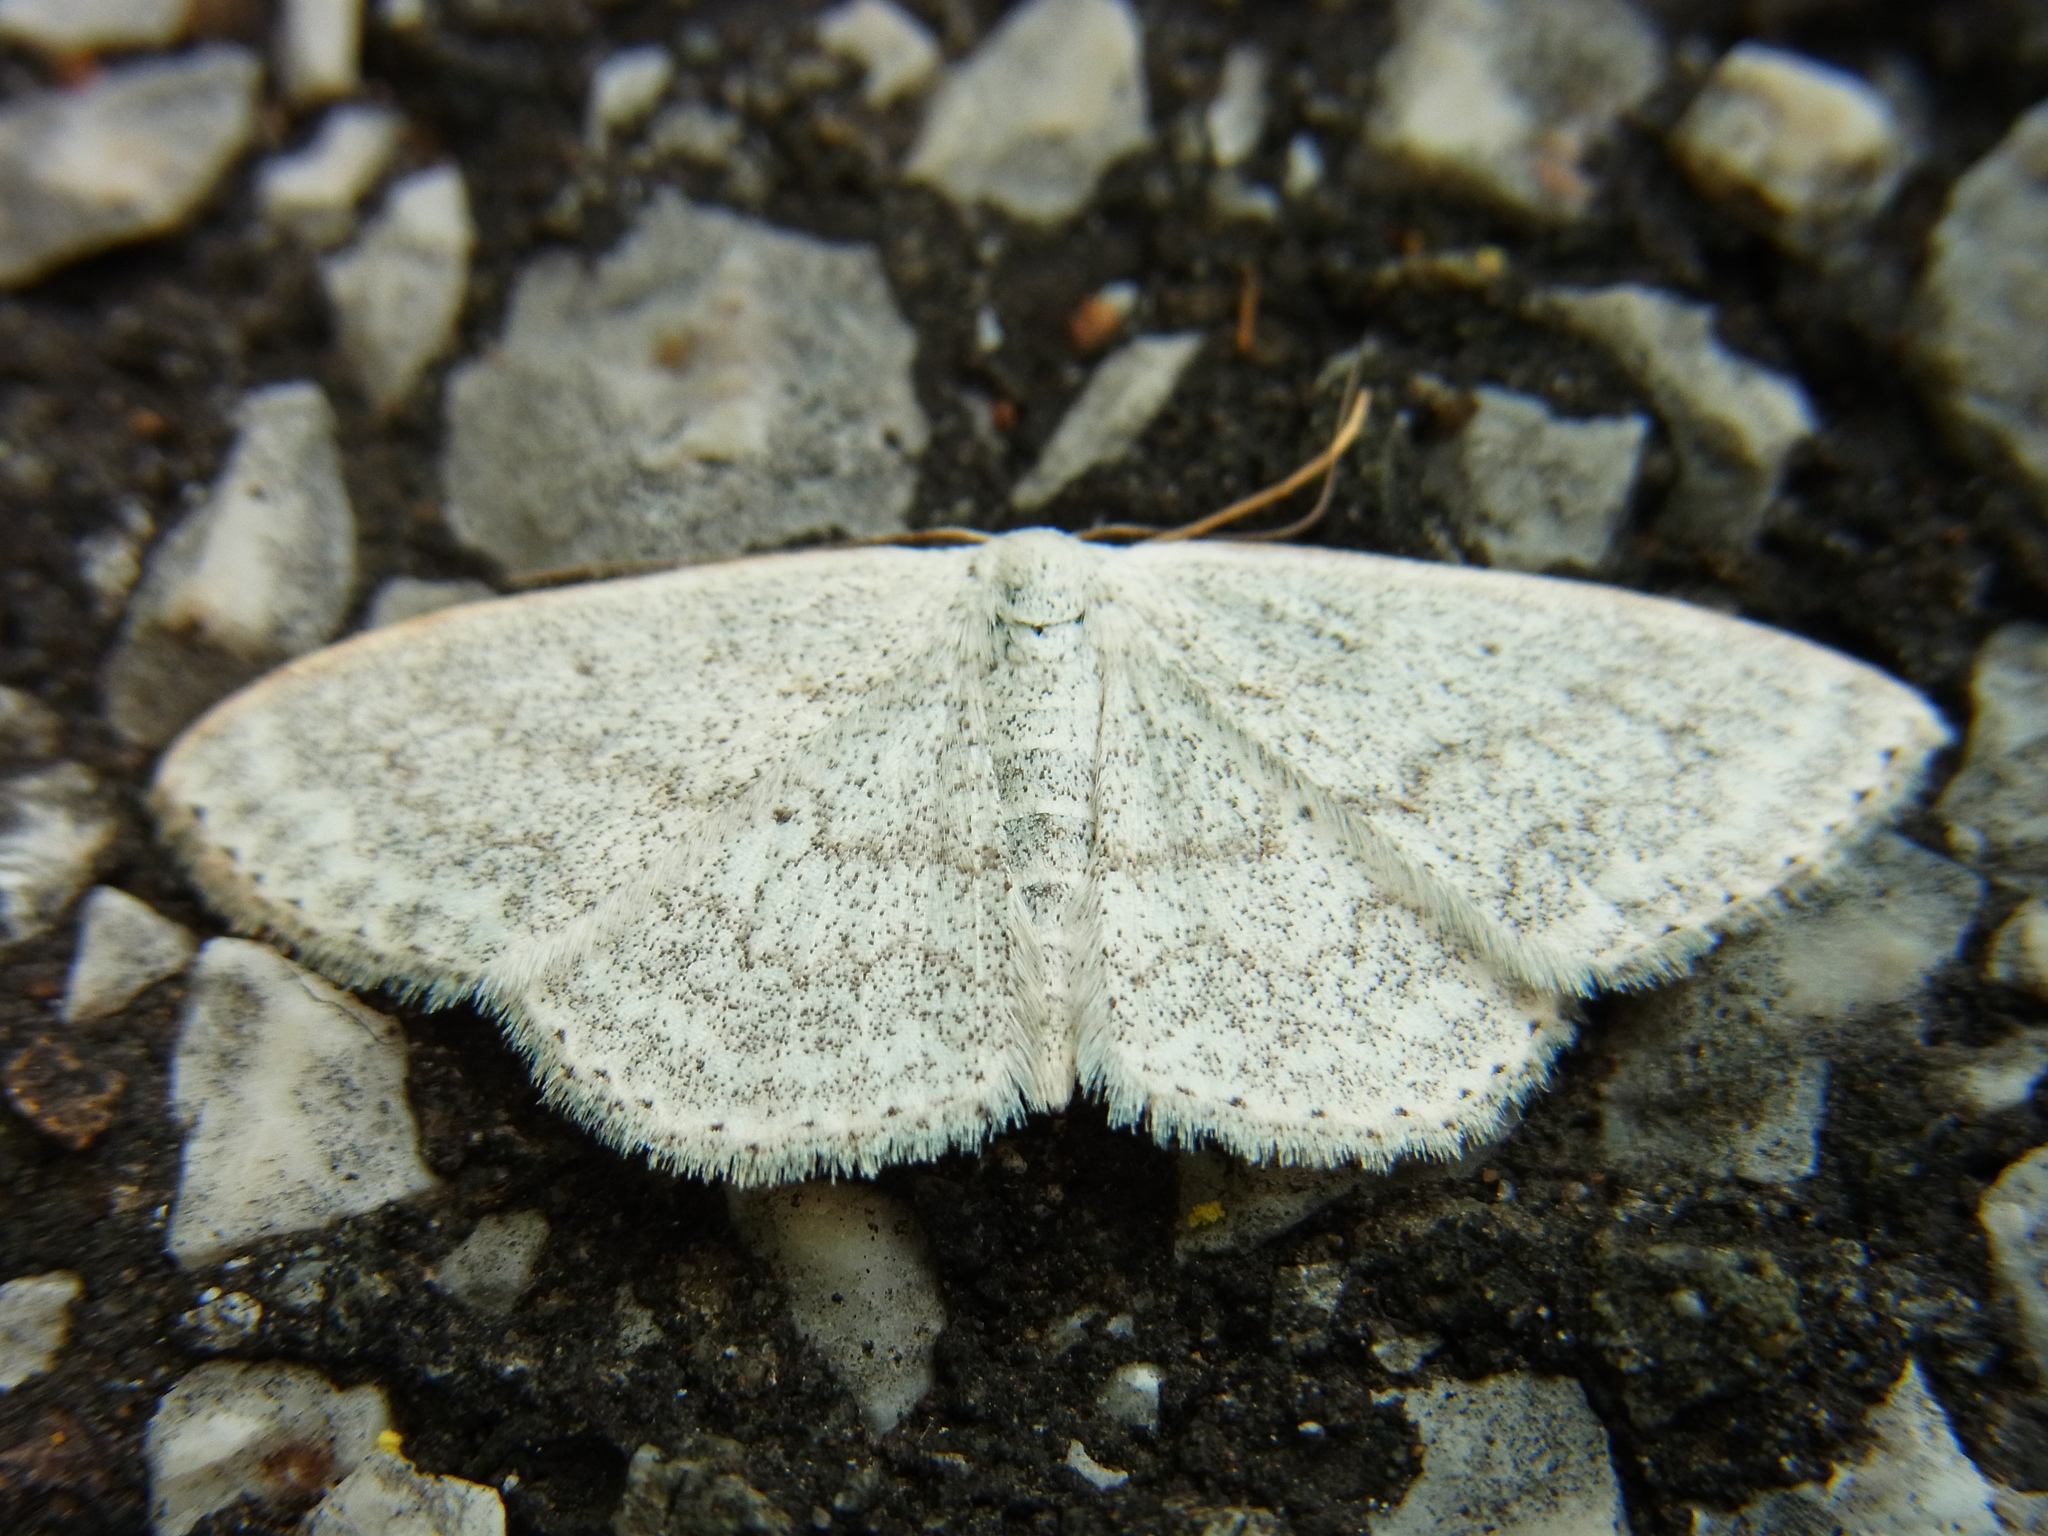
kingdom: Animalia
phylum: Arthropoda
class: Insecta
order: Lepidoptera
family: Geometridae
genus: Scopula
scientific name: Scopula epiorrhoe
